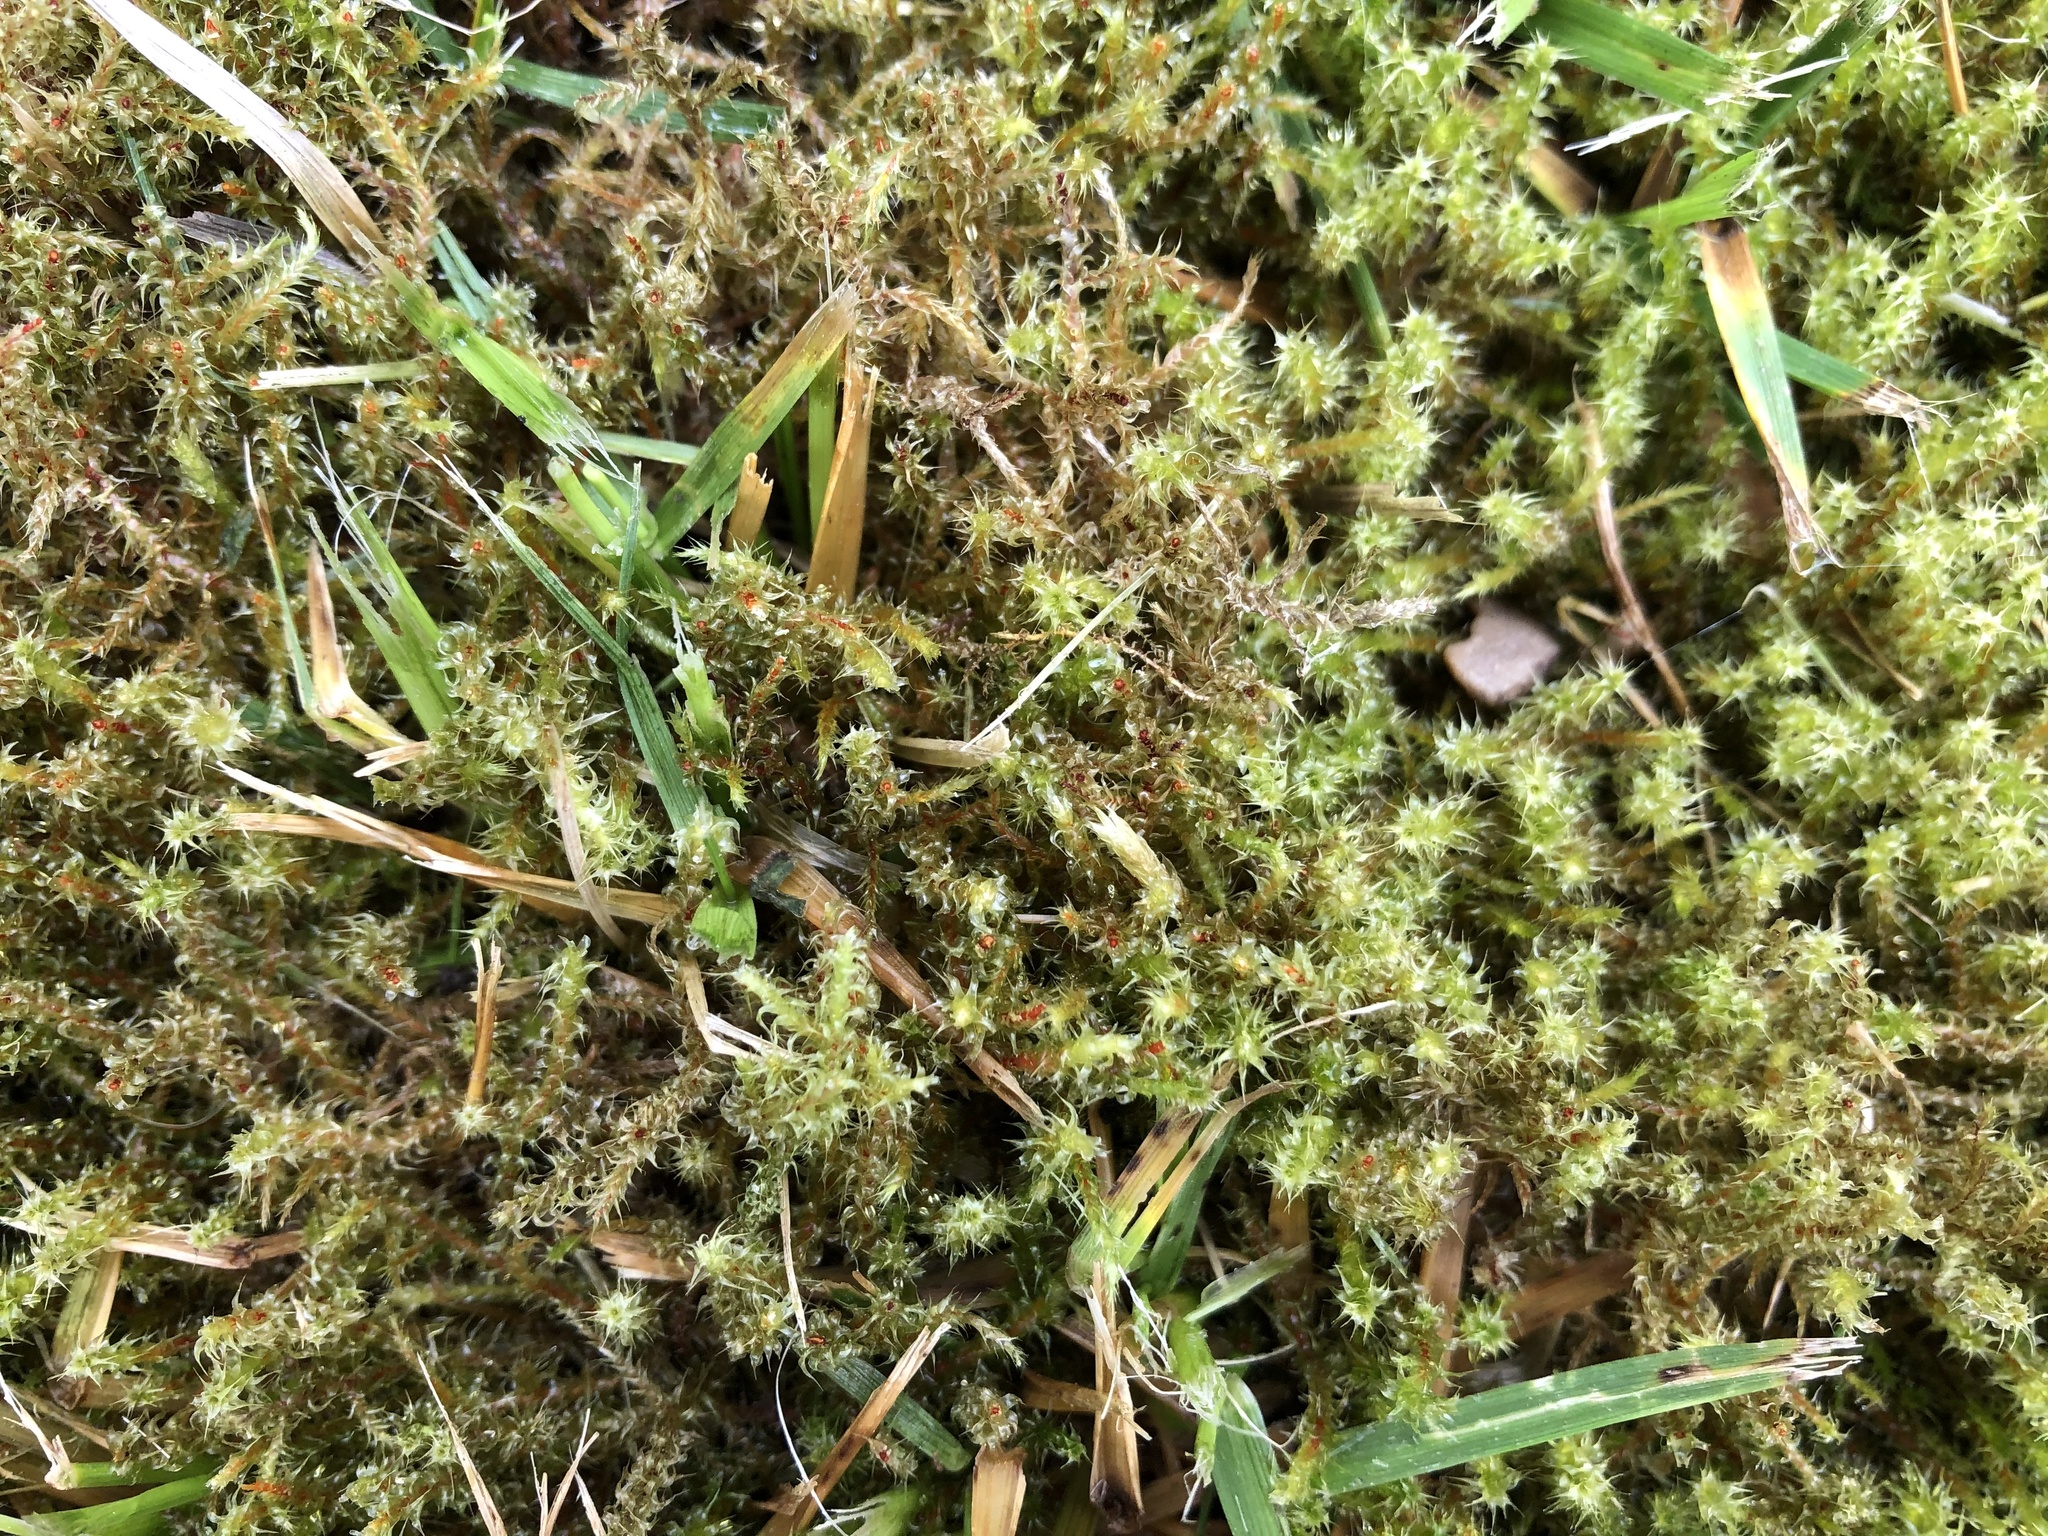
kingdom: Plantae
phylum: Bryophyta
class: Bryopsida
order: Hypnales
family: Hylocomiaceae
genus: Rhytidiadelphus
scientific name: Rhytidiadelphus squarrosus
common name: Springy turf-moss
